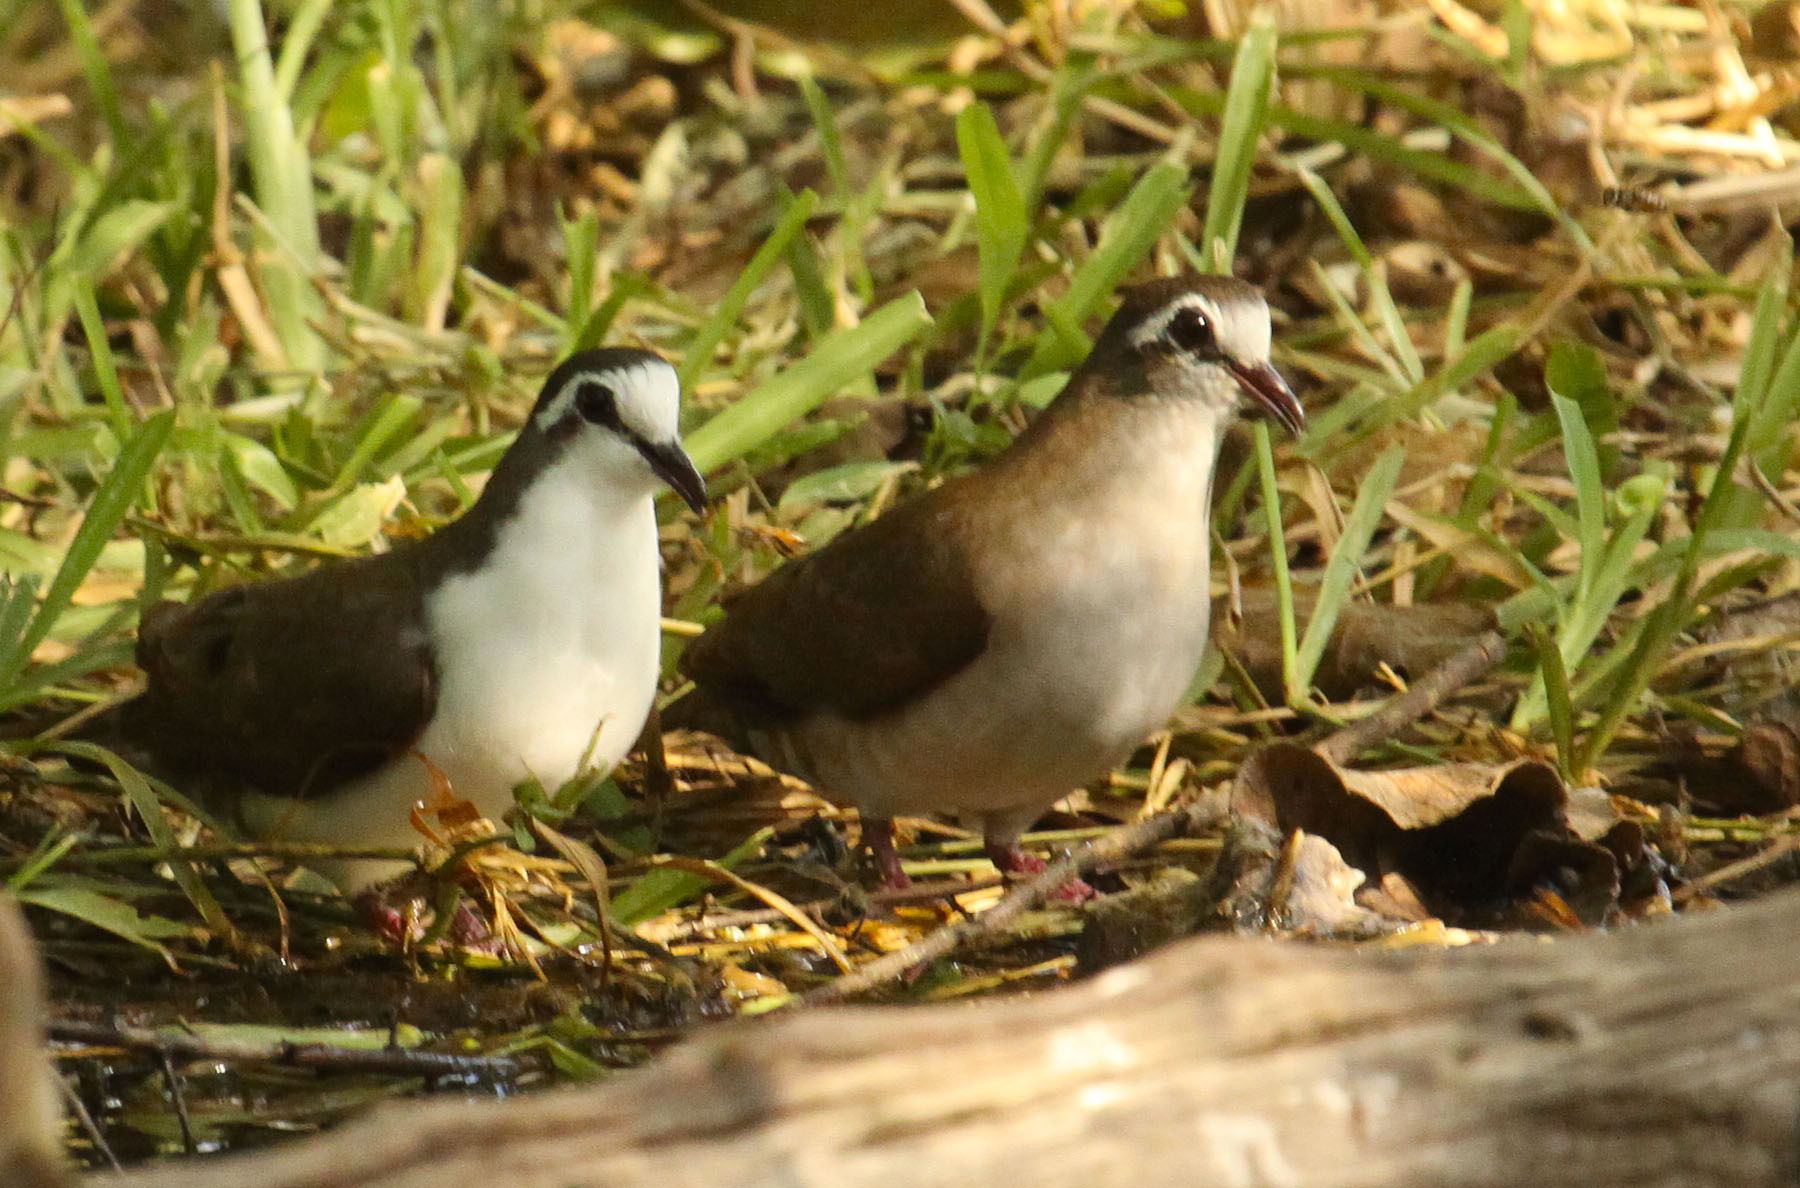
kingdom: Animalia
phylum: Chordata
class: Aves
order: Columbiformes
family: Columbidae
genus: Turtur
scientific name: Turtur tympanistria
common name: Tambourine dove
